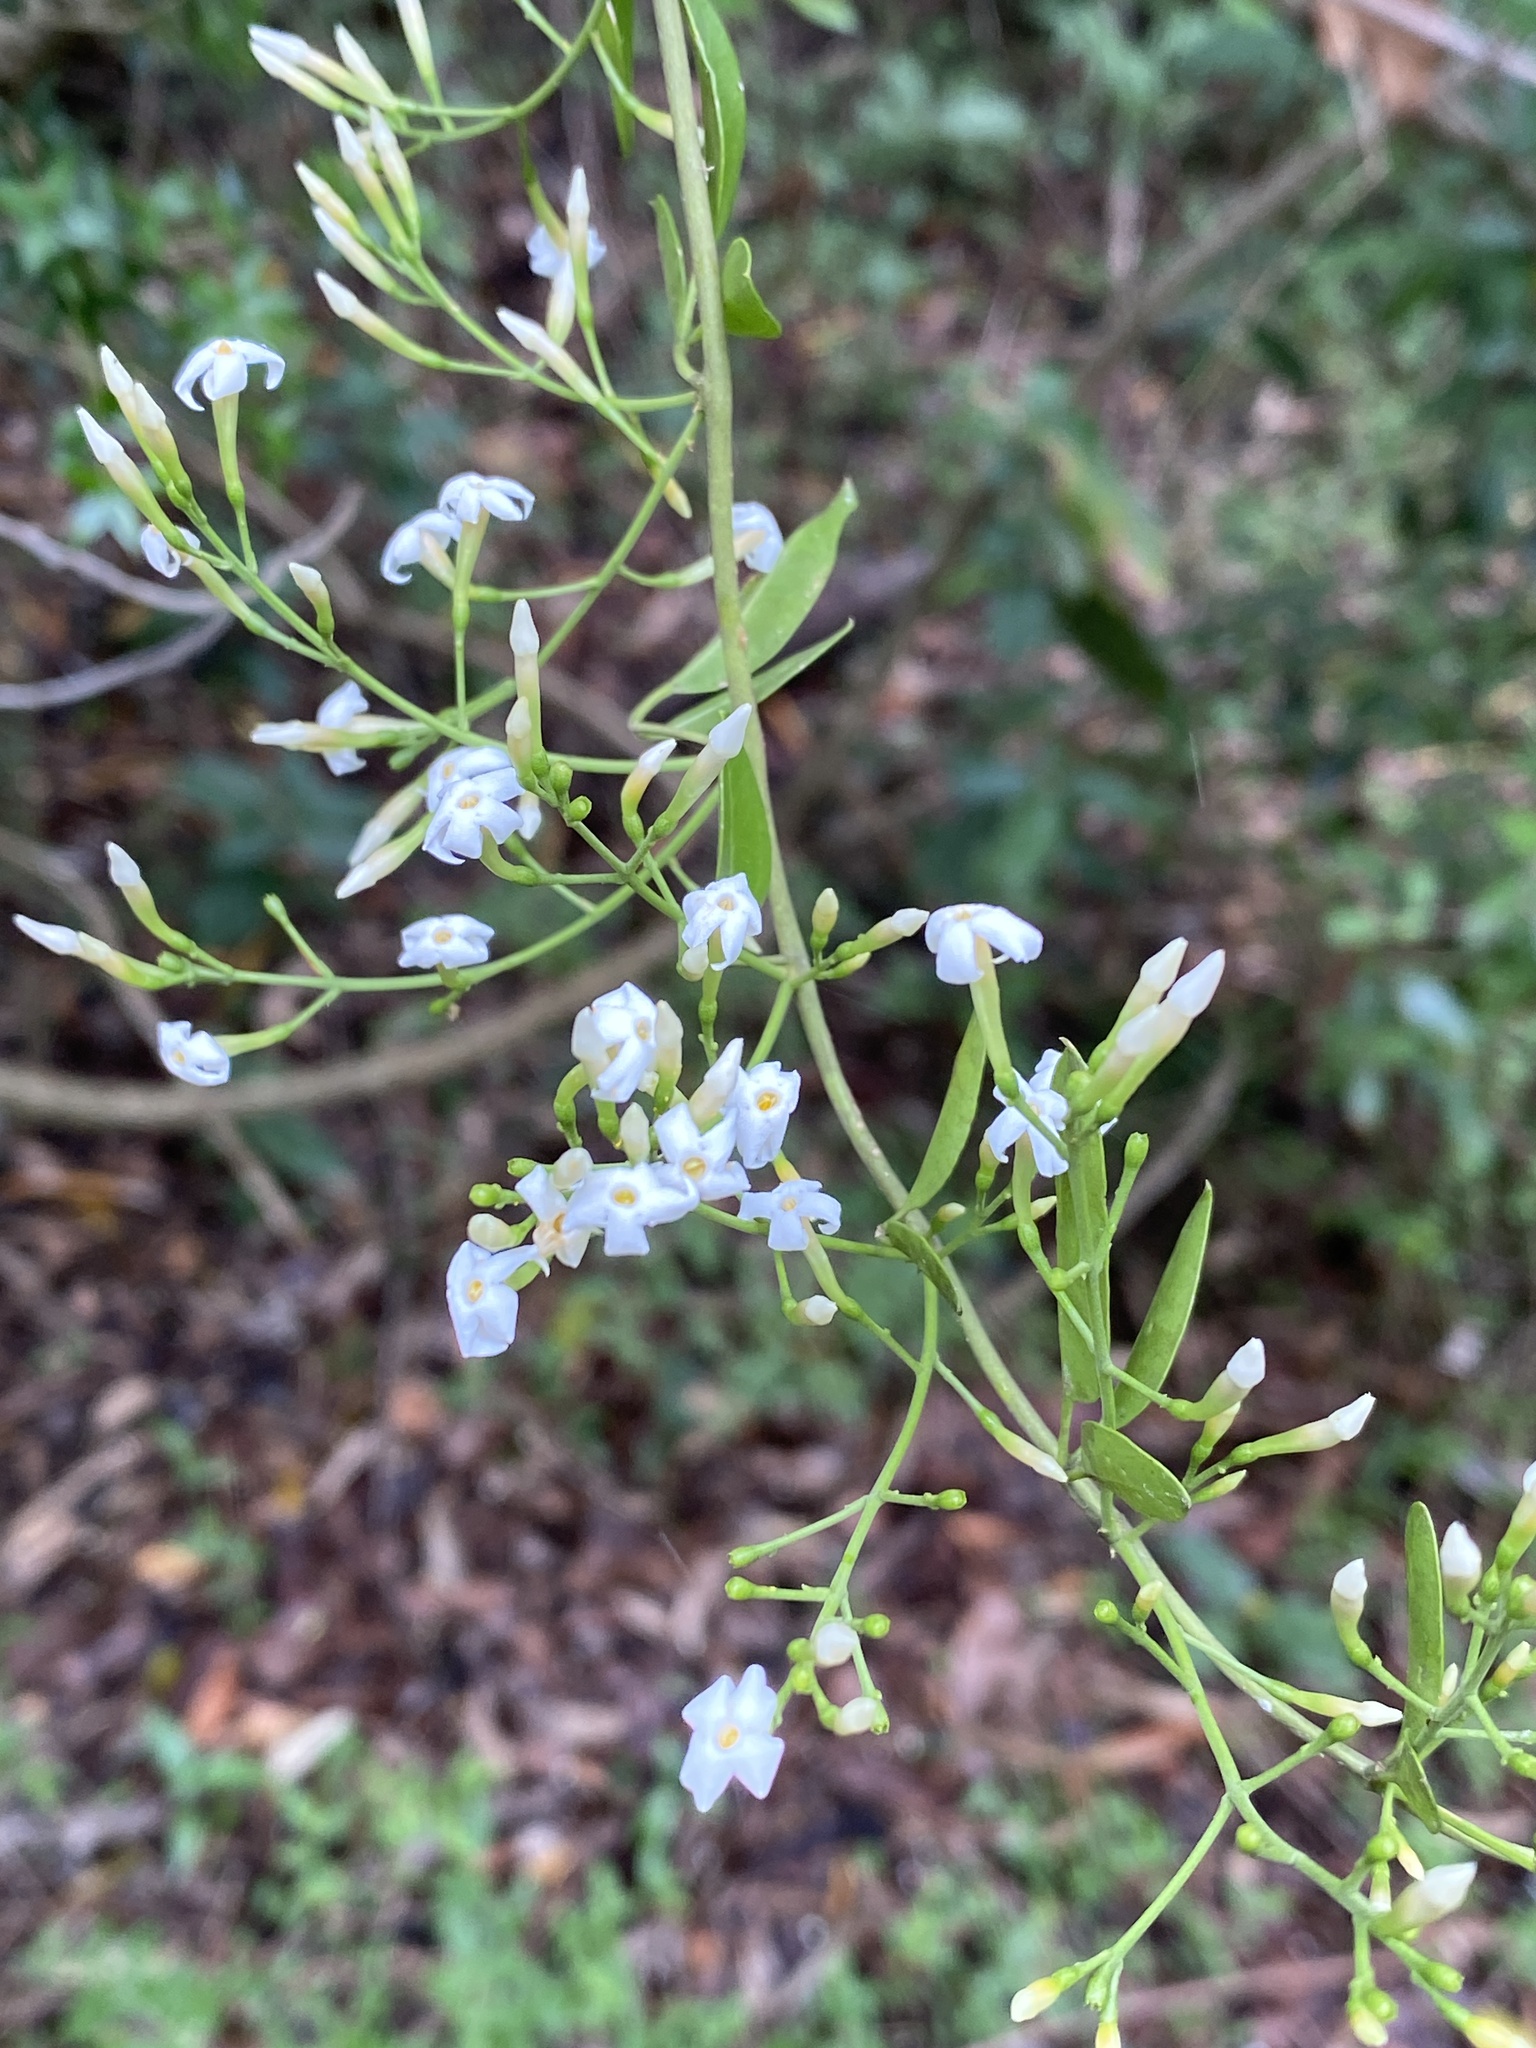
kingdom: Plantae
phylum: Tracheophyta
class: Magnoliopsida
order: Lamiales
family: Oleaceae
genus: Jasminum
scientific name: Jasminum didymum
